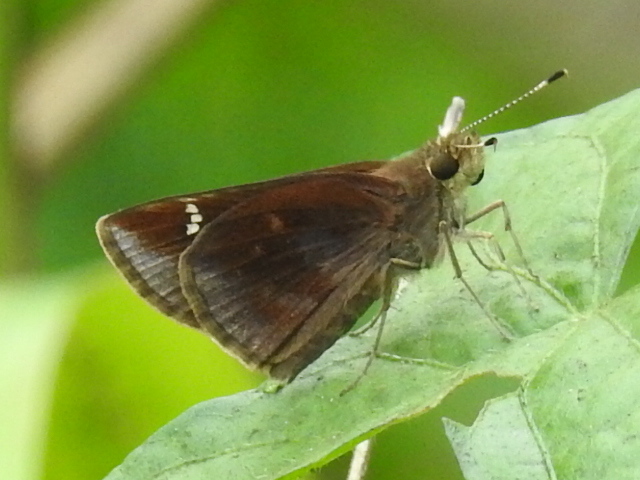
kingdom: Animalia
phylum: Arthropoda
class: Insecta
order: Lepidoptera
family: Hesperiidae
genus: Lerema
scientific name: Lerema accius
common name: Clouded skipper
